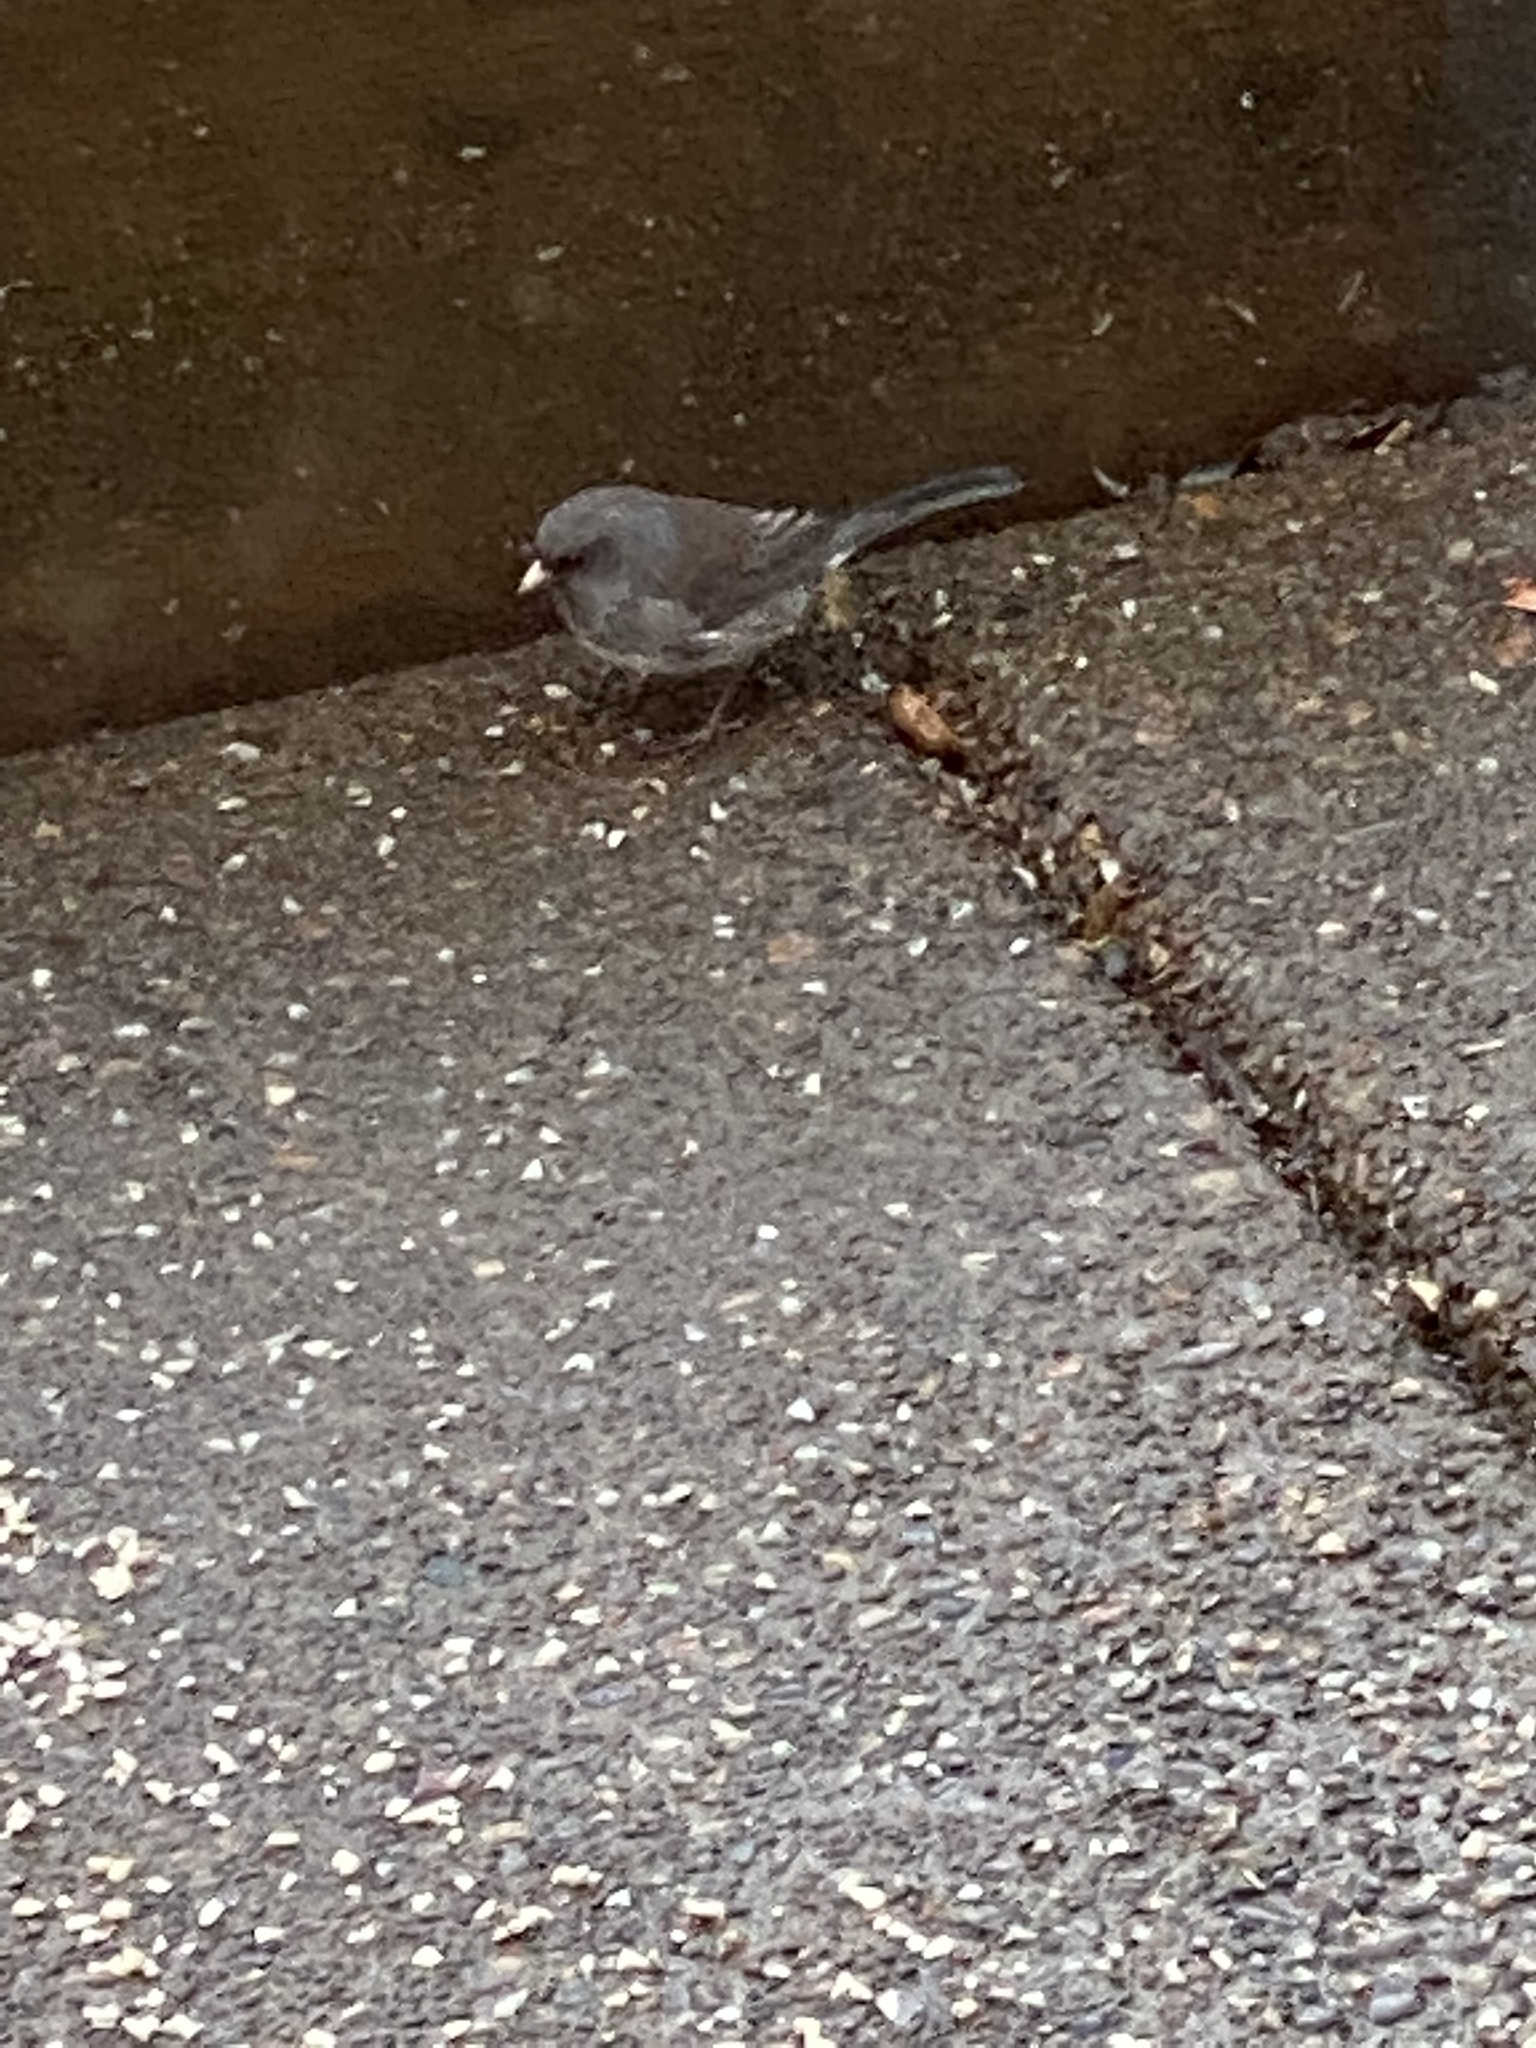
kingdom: Animalia
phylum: Chordata
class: Aves
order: Passeriformes
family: Passerellidae
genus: Junco
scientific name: Junco hyemalis
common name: Dark-eyed junco
